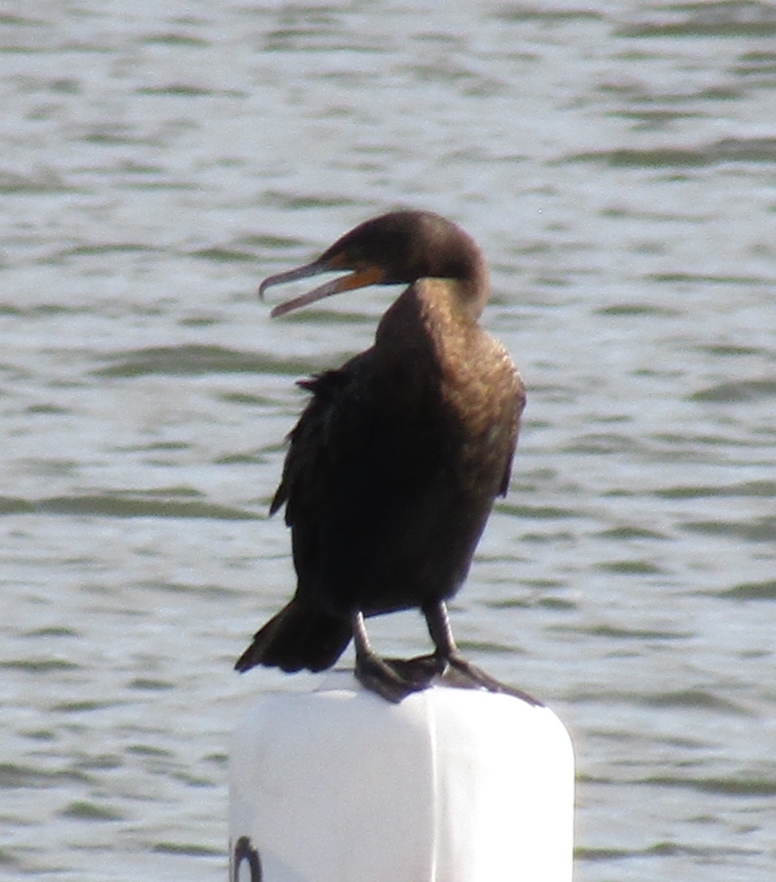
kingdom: Animalia
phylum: Chordata
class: Aves
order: Suliformes
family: Phalacrocoracidae
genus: Phalacrocorax
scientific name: Phalacrocorax auritus
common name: Double-crested cormorant
